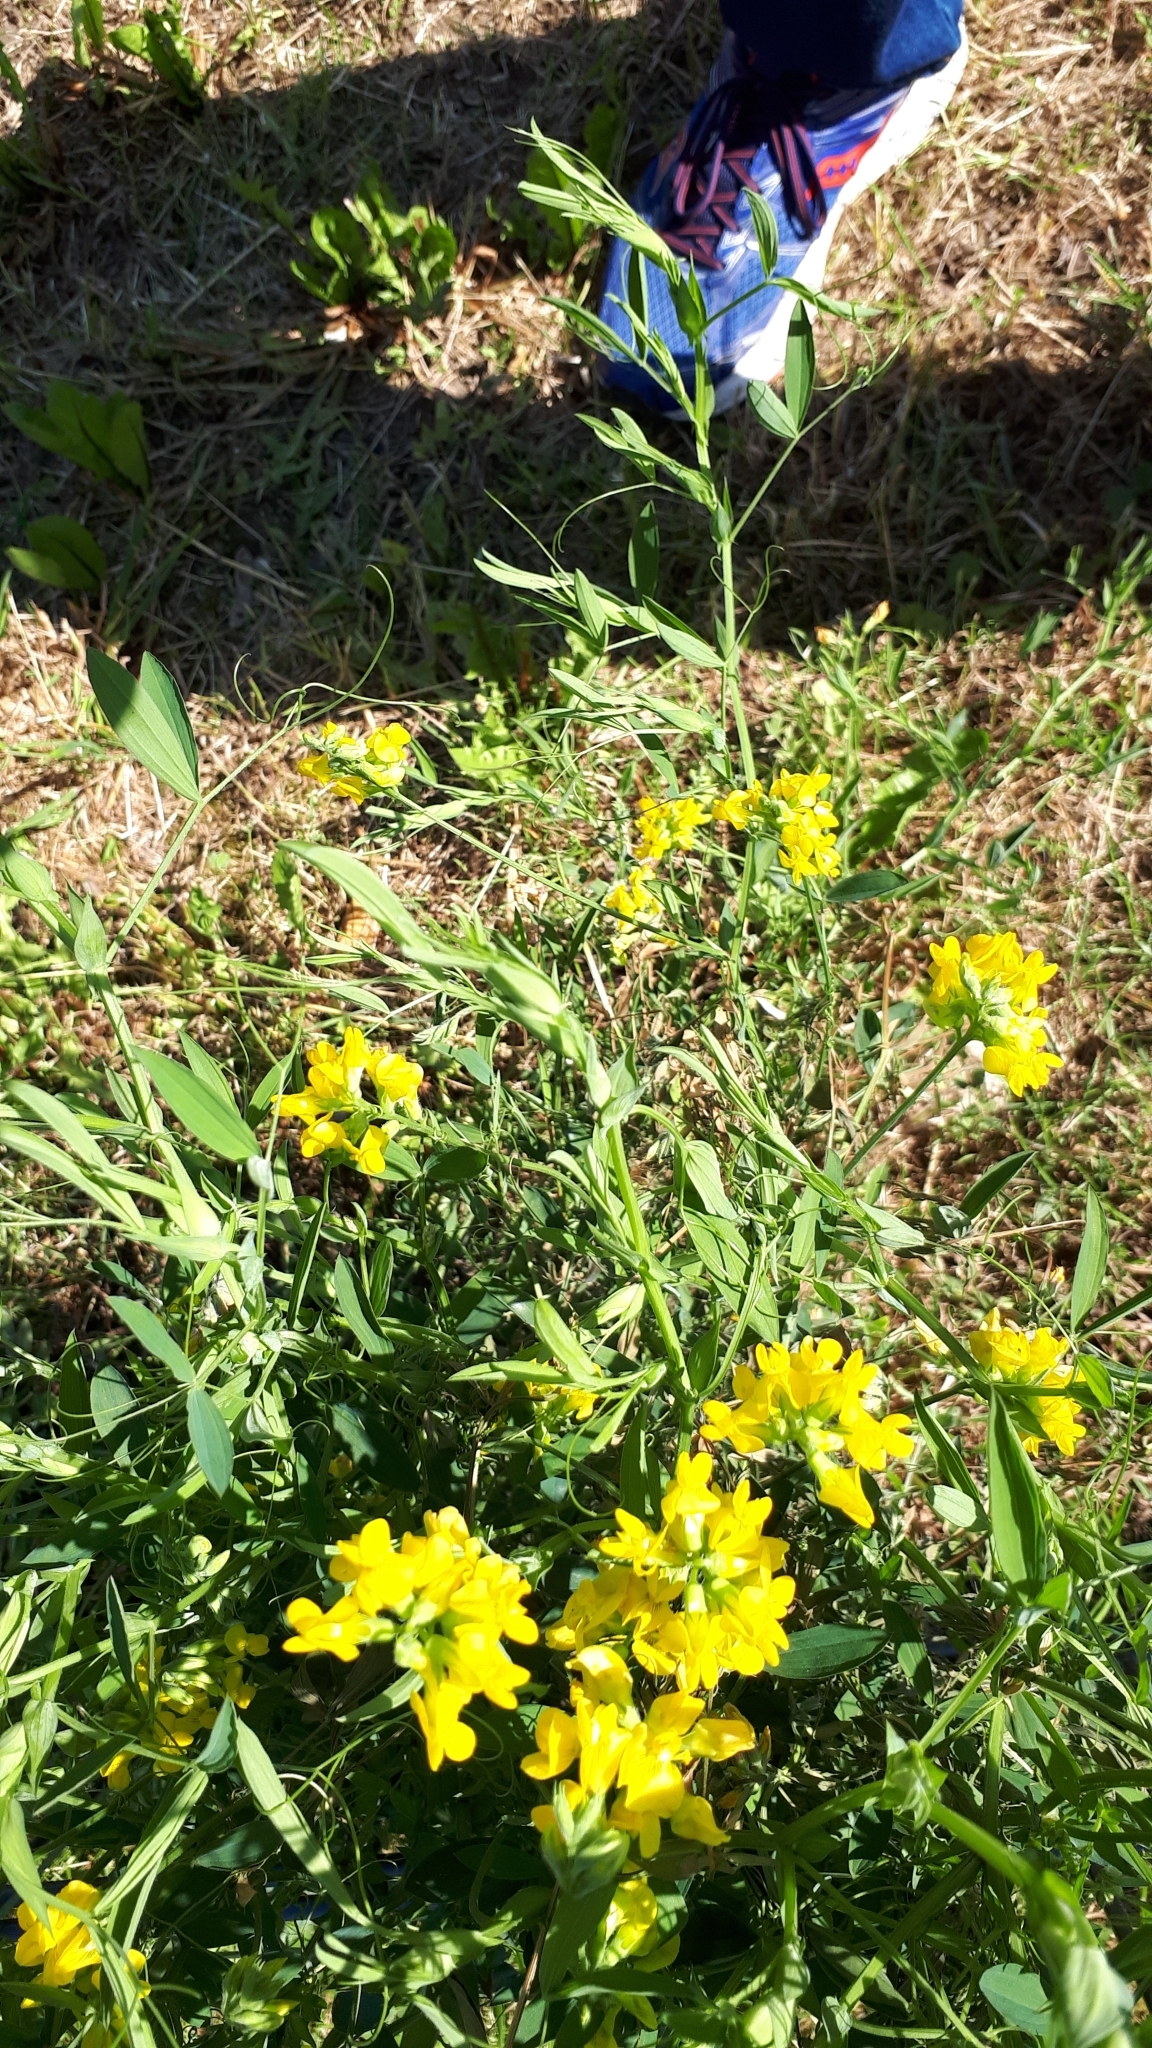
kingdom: Plantae
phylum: Tracheophyta
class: Magnoliopsida
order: Fabales
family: Fabaceae
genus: Lathyrus
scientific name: Lathyrus pratensis
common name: Meadow vetchling
